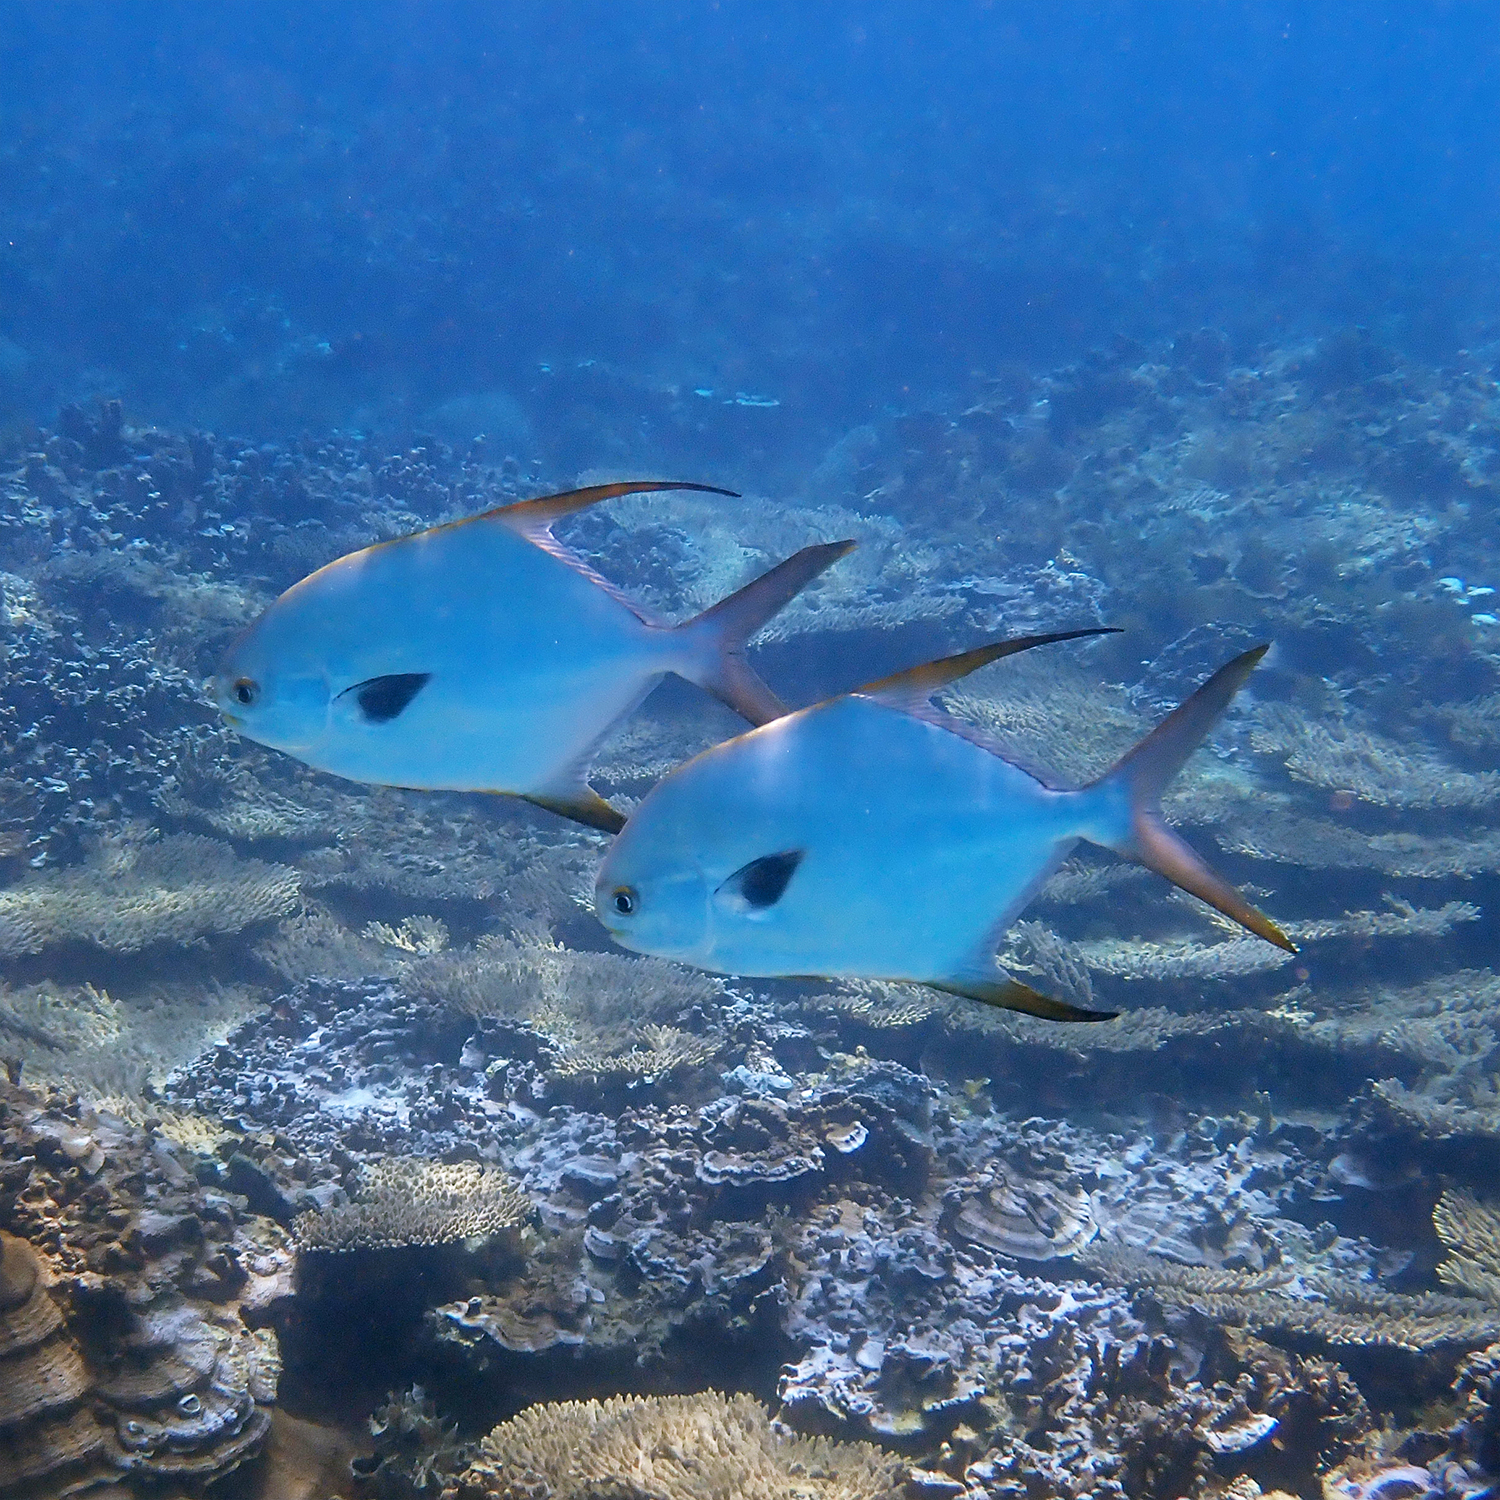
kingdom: Animalia
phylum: Chordata
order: Perciformes
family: Carangidae
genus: Trachinotus
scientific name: Trachinotus blochii
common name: Snubnose pompano
